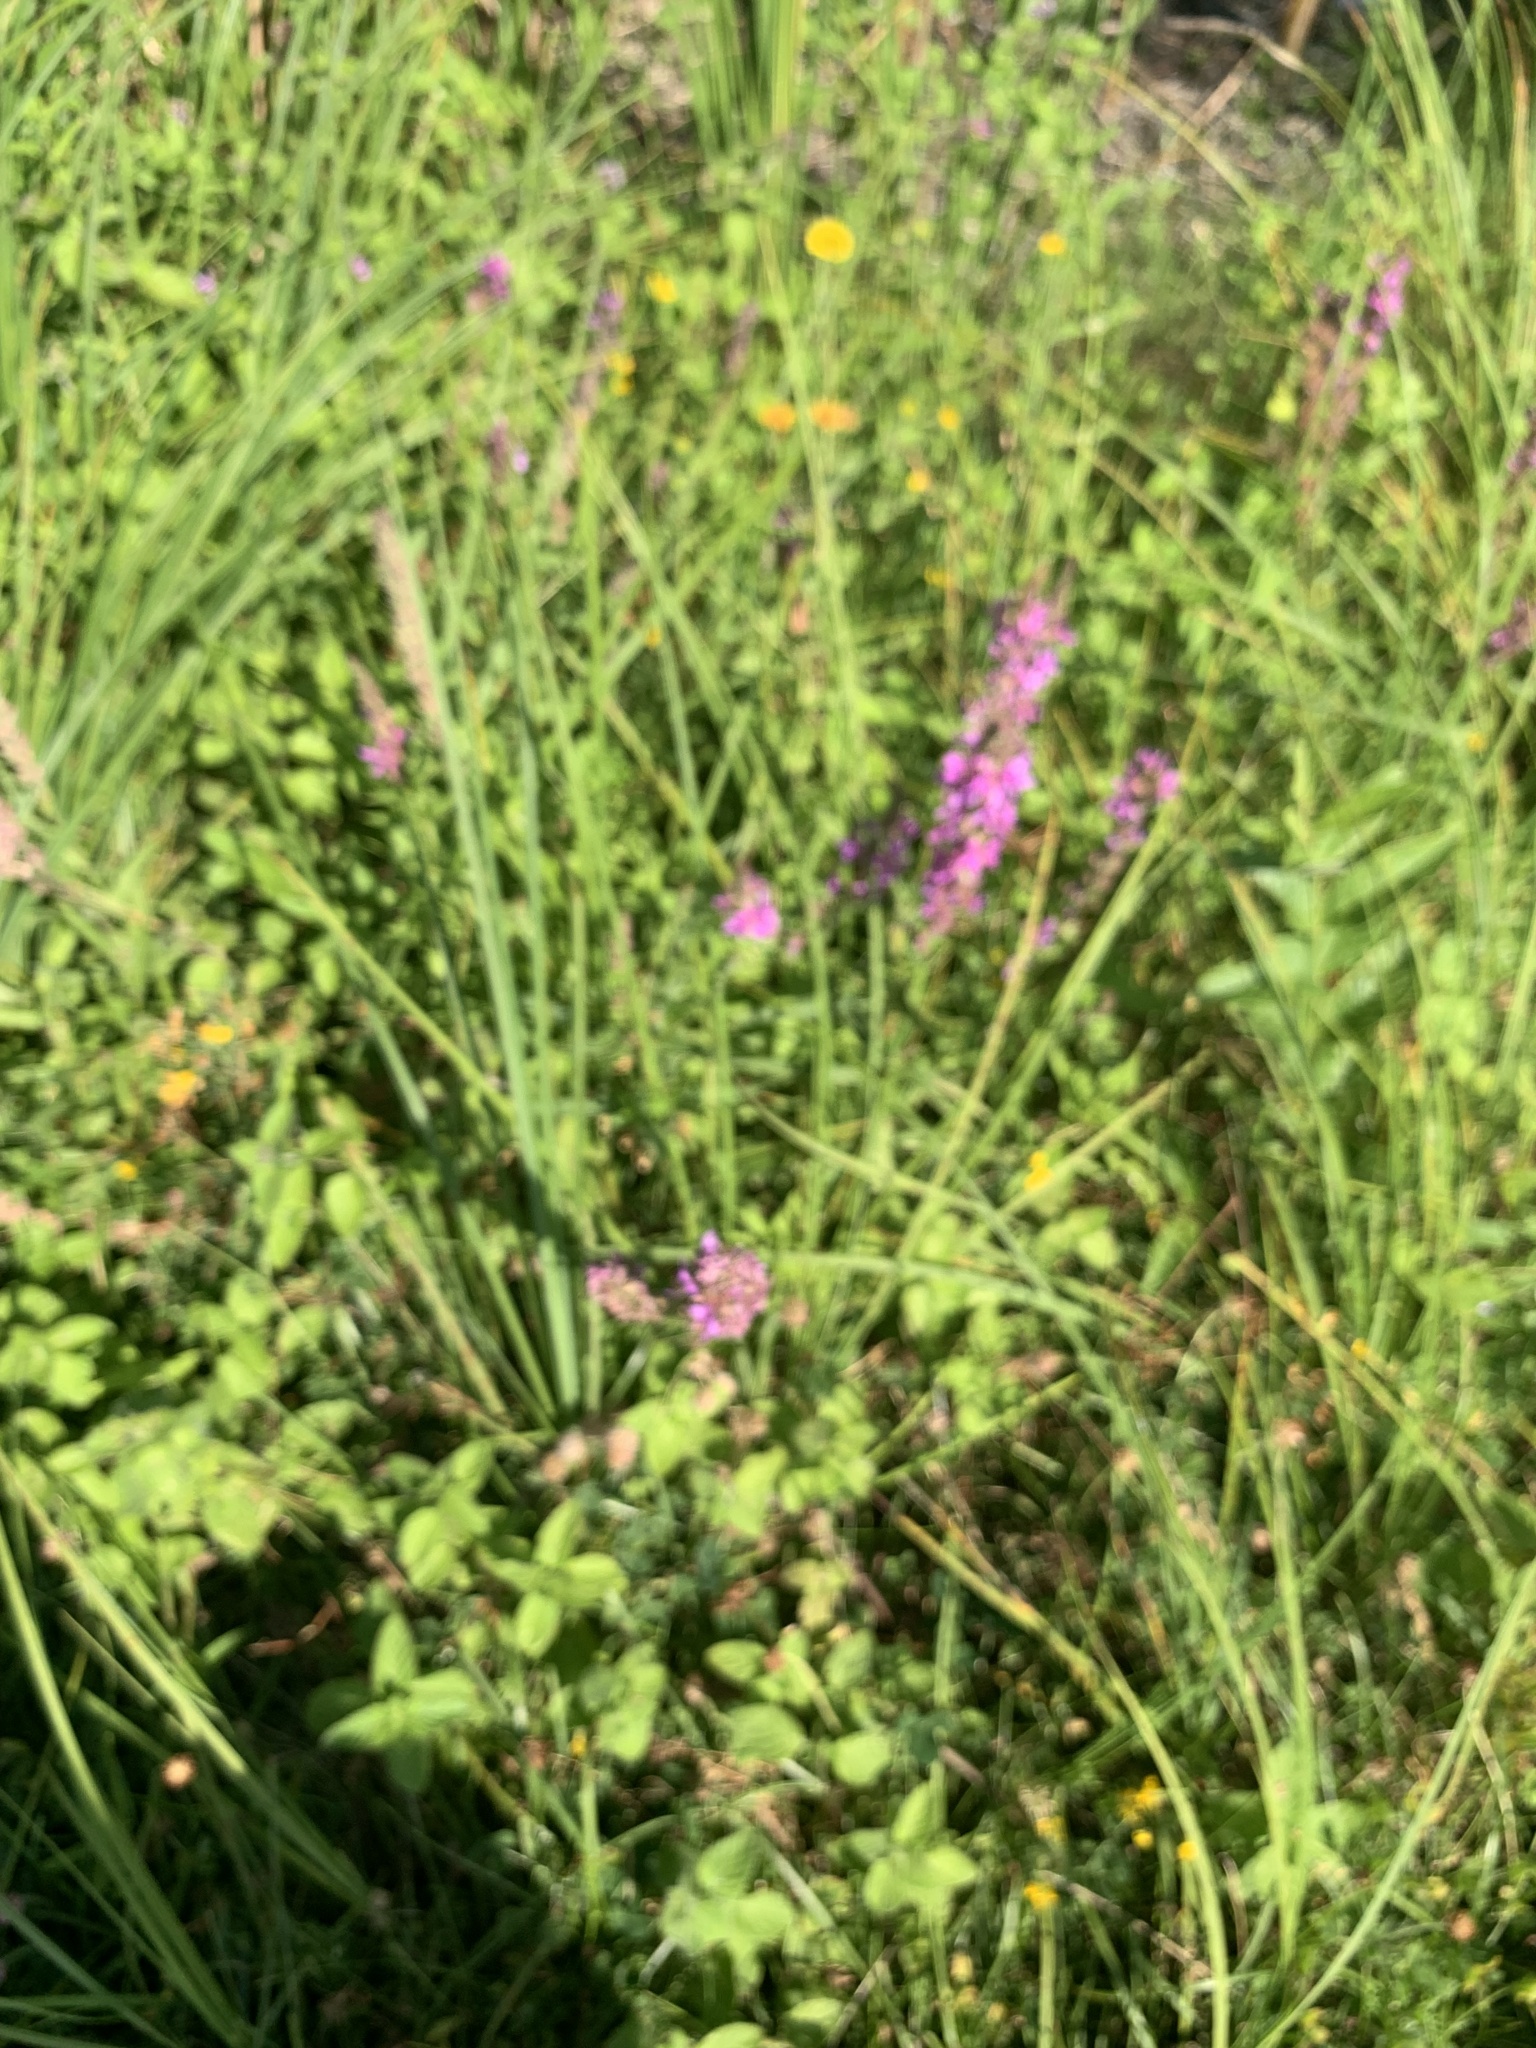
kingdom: Plantae
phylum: Tracheophyta
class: Magnoliopsida
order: Myrtales
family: Lythraceae
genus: Lythrum
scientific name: Lythrum salicaria
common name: Purple loosestrife
